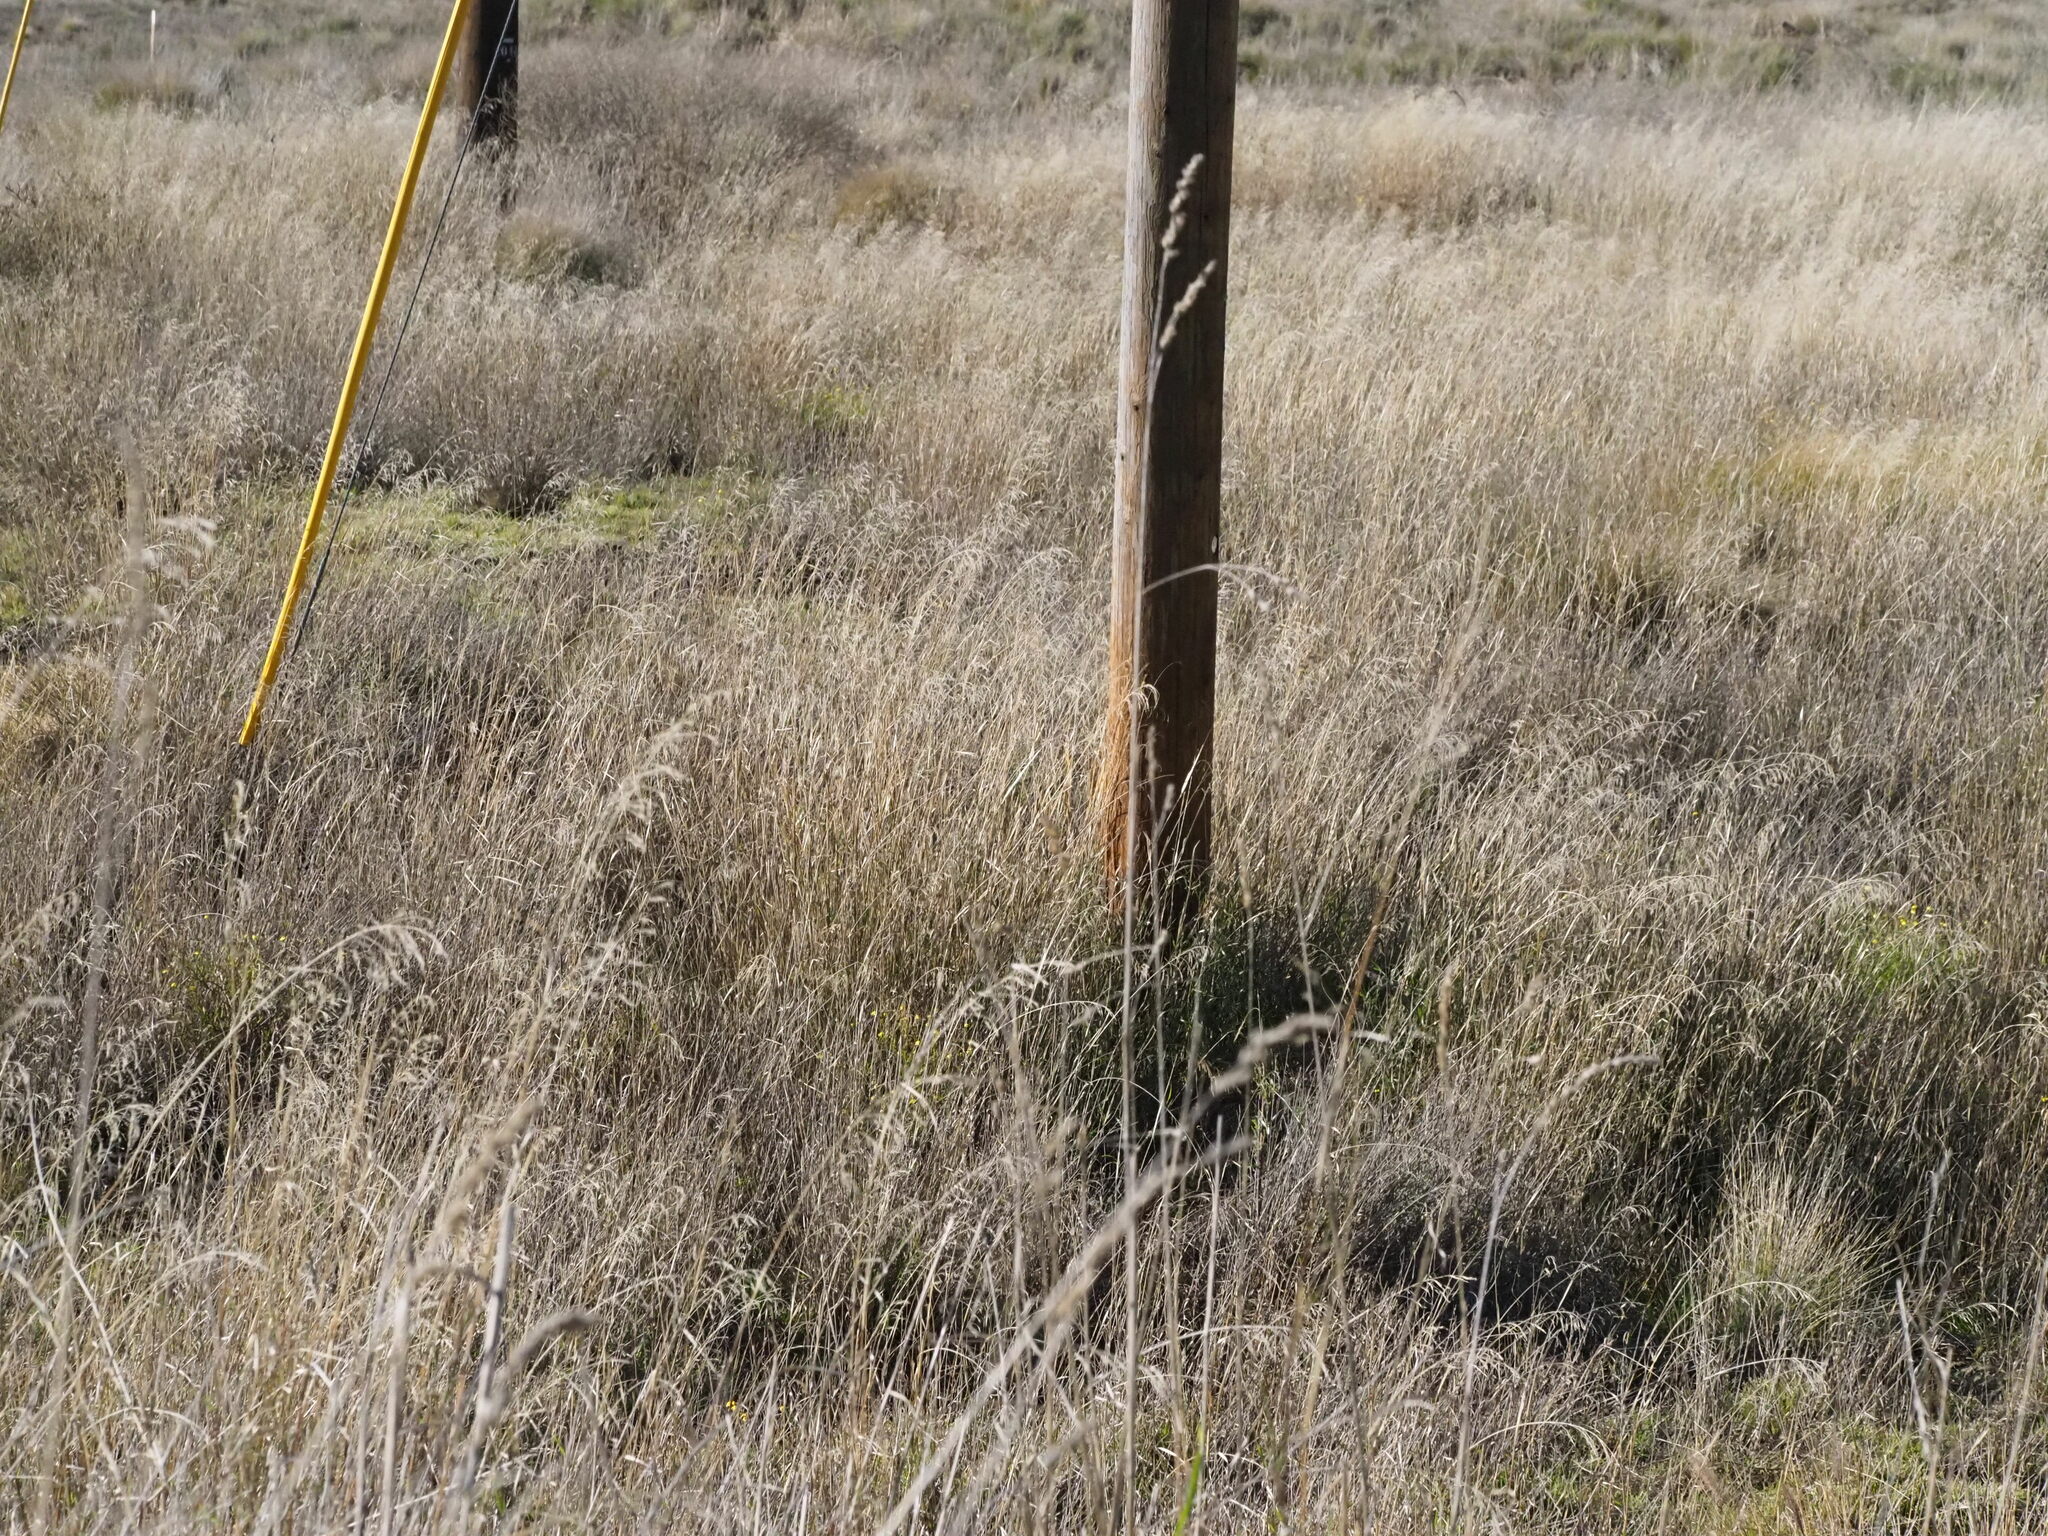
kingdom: Plantae
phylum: Tracheophyta
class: Liliopsida
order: Poales
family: Poaceae
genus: Dactylis
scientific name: Dactylis glomerata
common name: Orchardgrass
